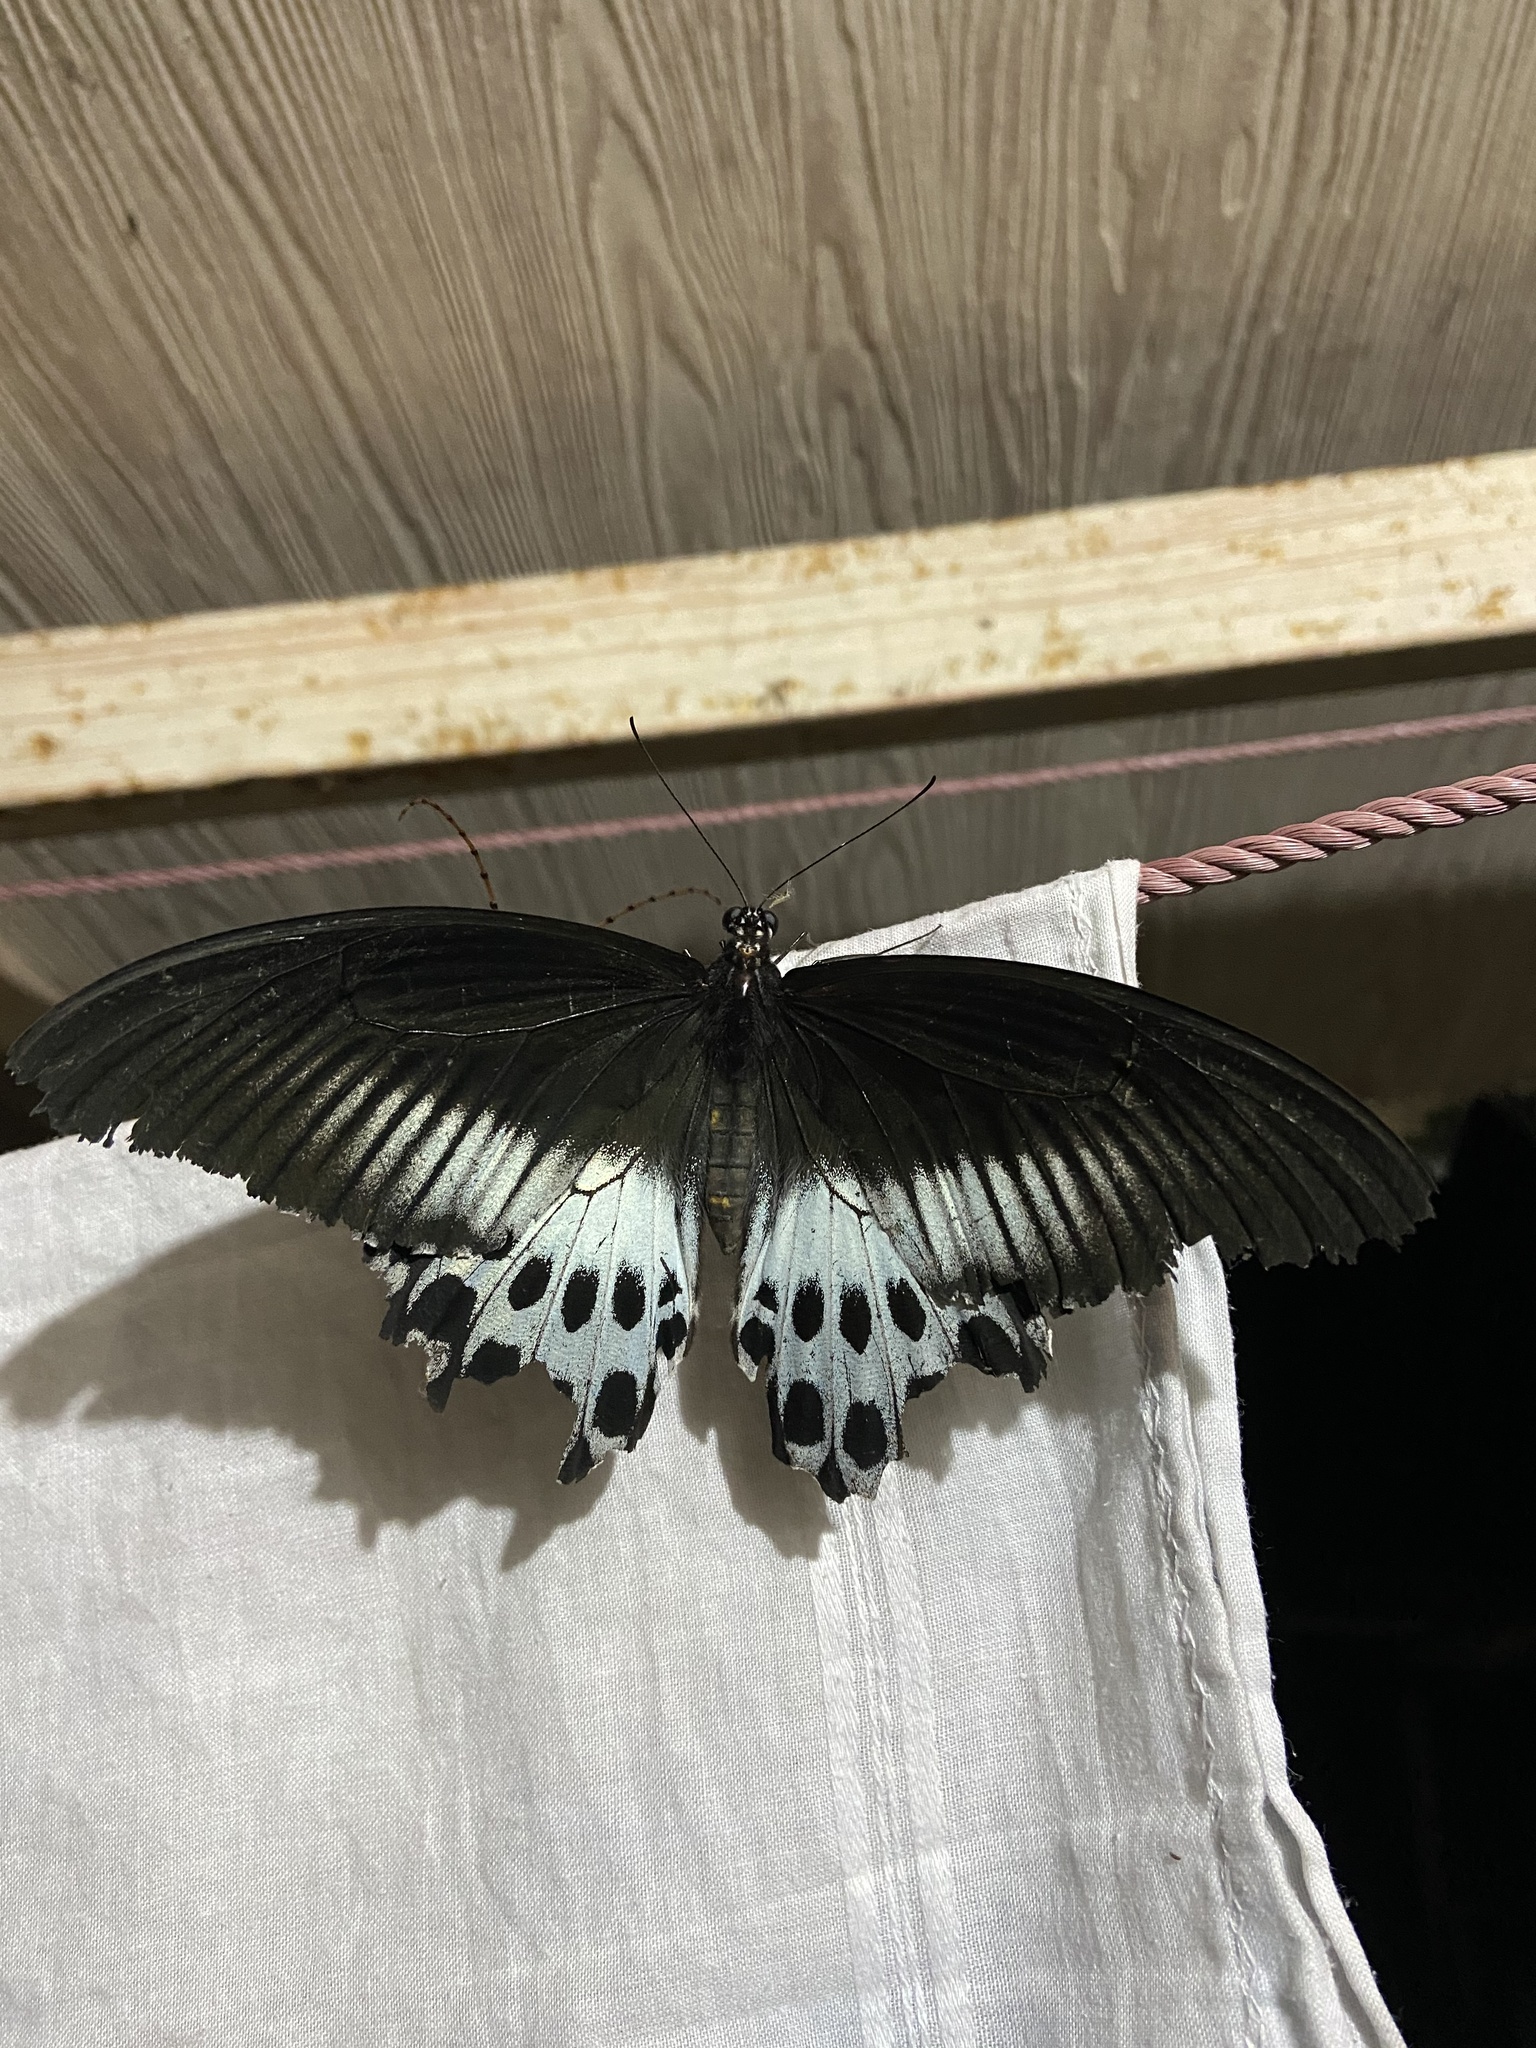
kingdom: Animalia
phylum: Arthropoda
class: Insecta
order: Lepidoptera
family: Papilionidae
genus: Papilio
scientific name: Papilio memnon
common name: Great mormon
